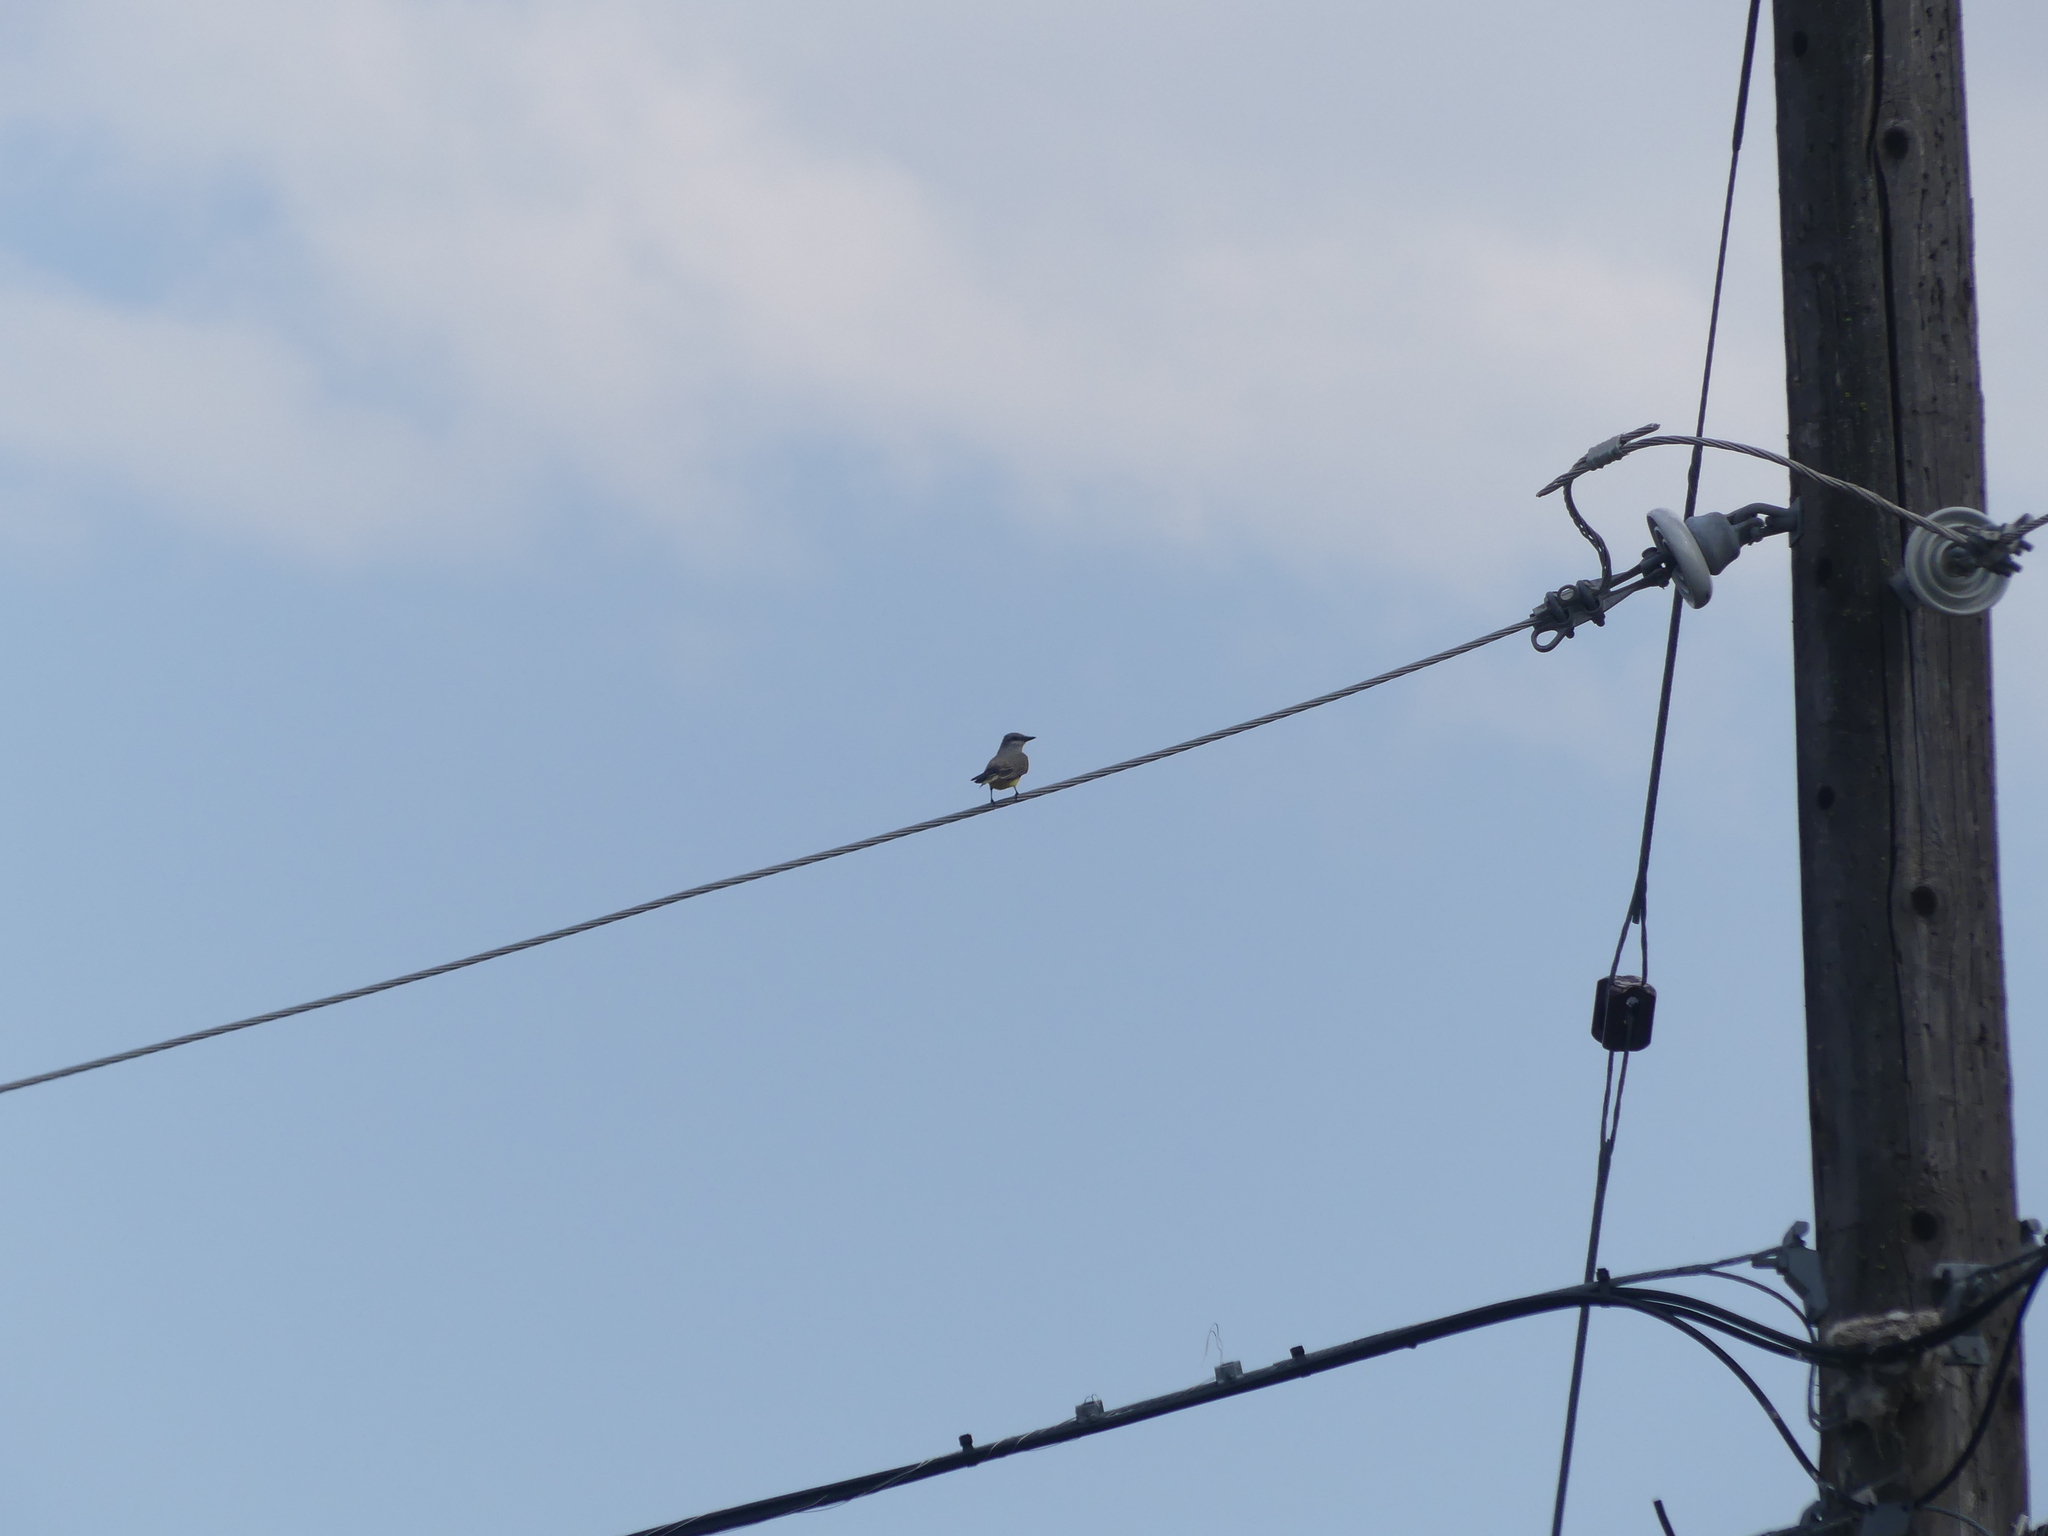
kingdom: Animalia
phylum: Chordata
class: Aves
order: Passeriformes
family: Tyrannidae
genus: Tyrannus
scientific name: Tyrannus verticalis
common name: Western kingbird
